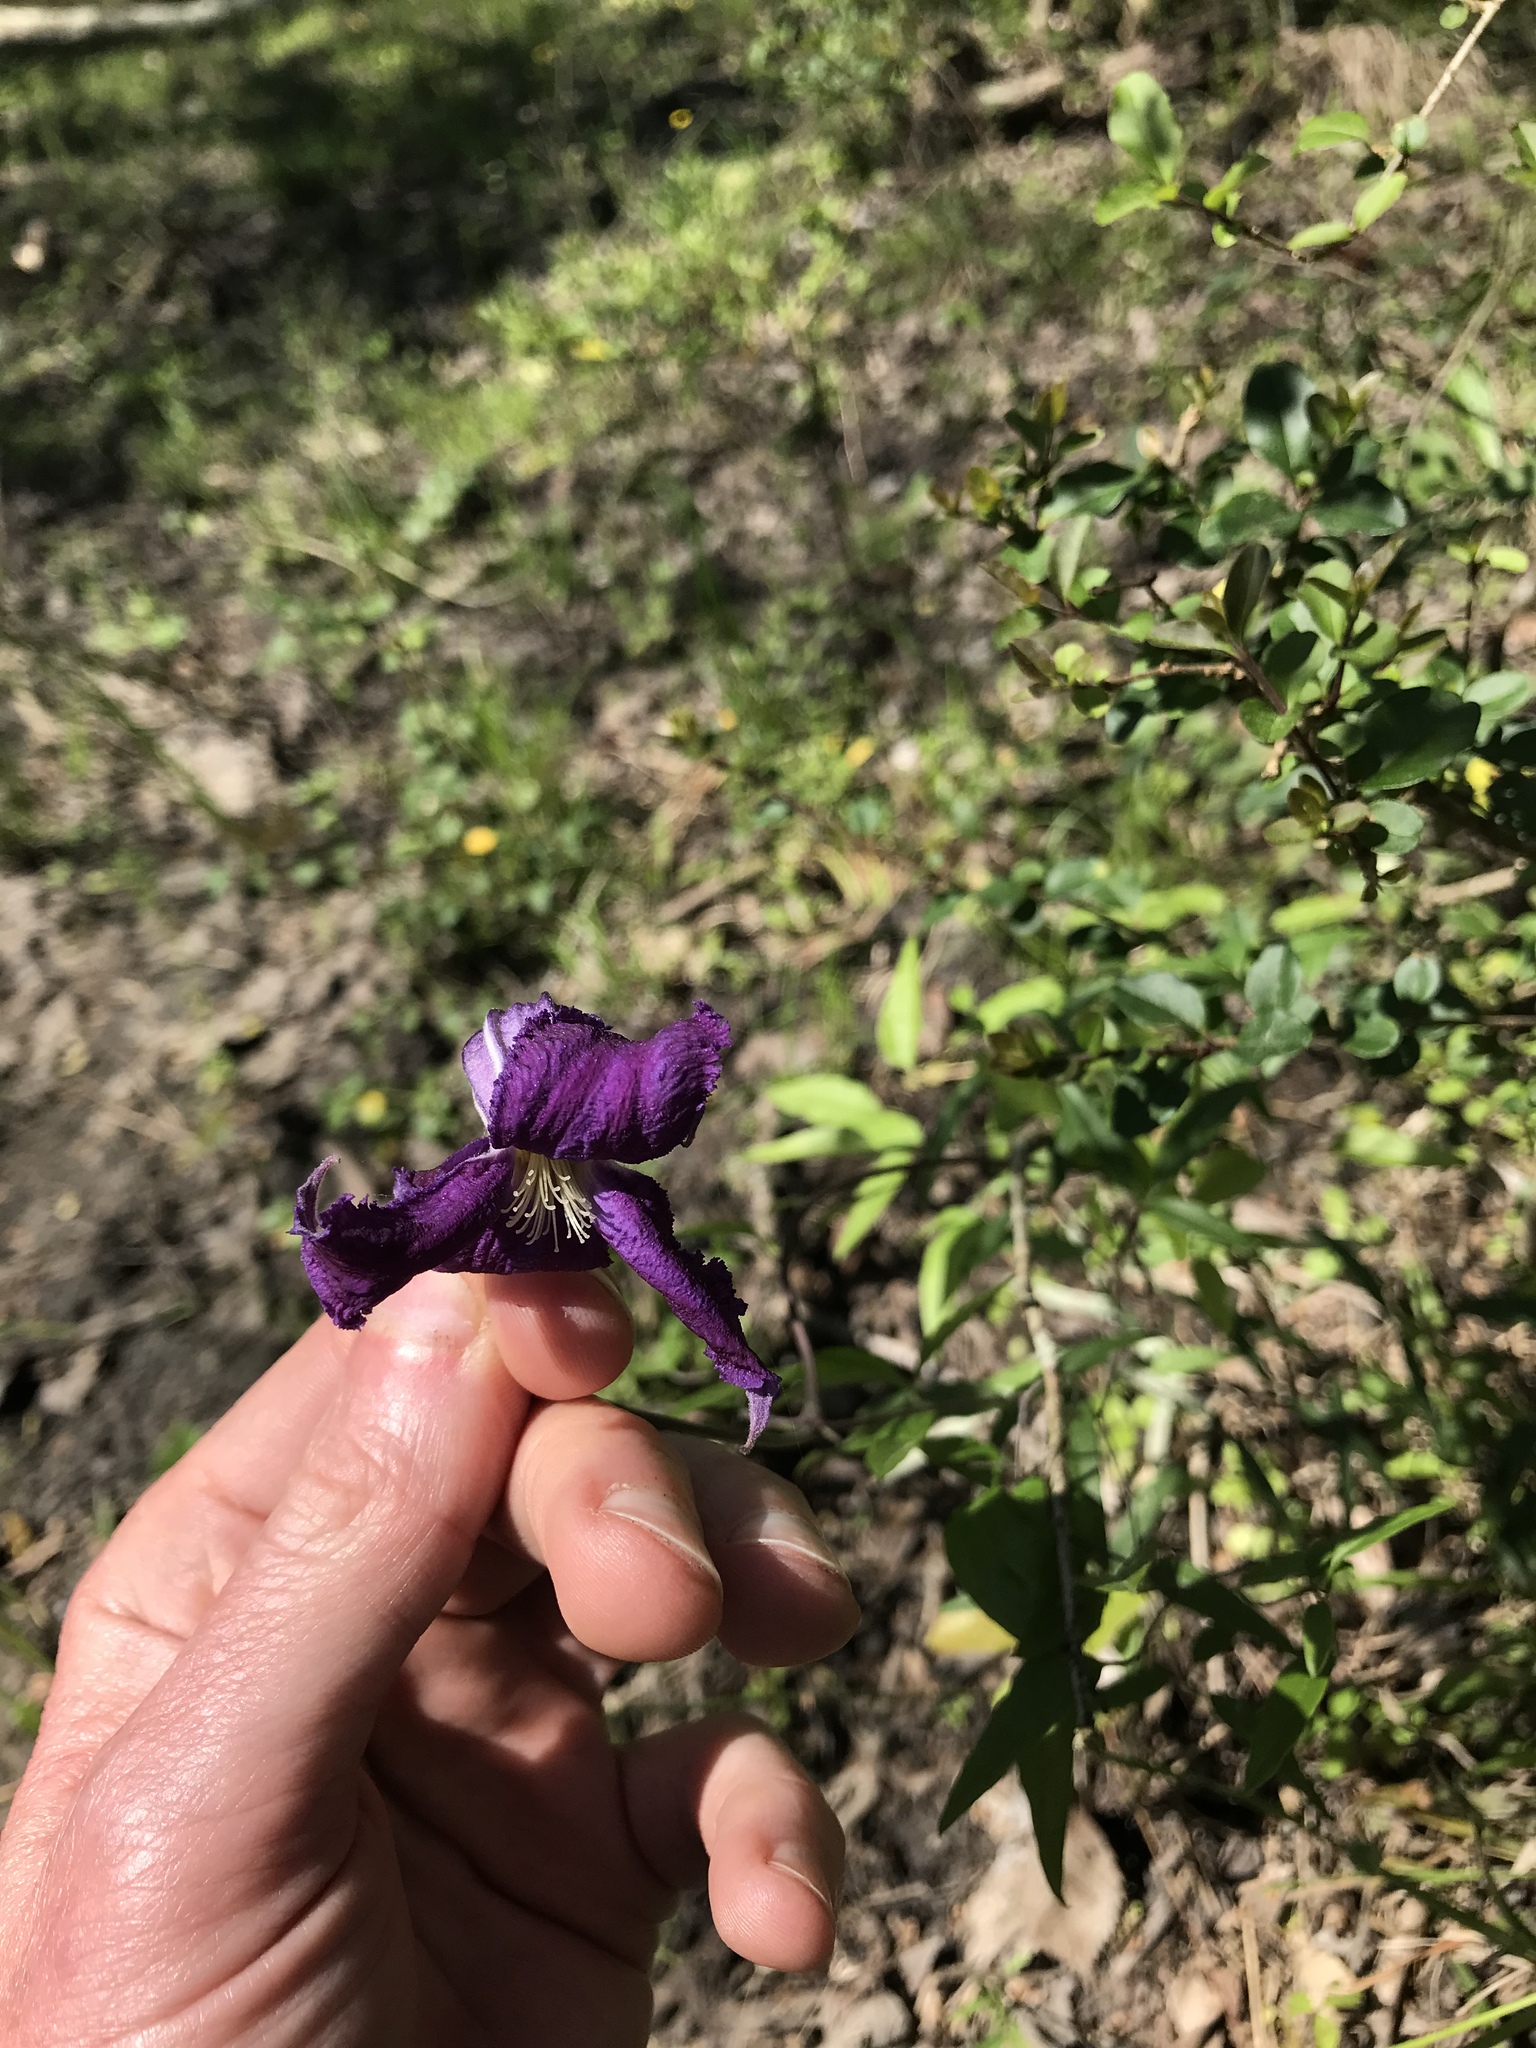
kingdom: Plantae
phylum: Tracheophyta
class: Magnoliopsida
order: Ranunculales
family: Ranunculaceae
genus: Clematis
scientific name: Clematis crispa
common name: Curly clematis
